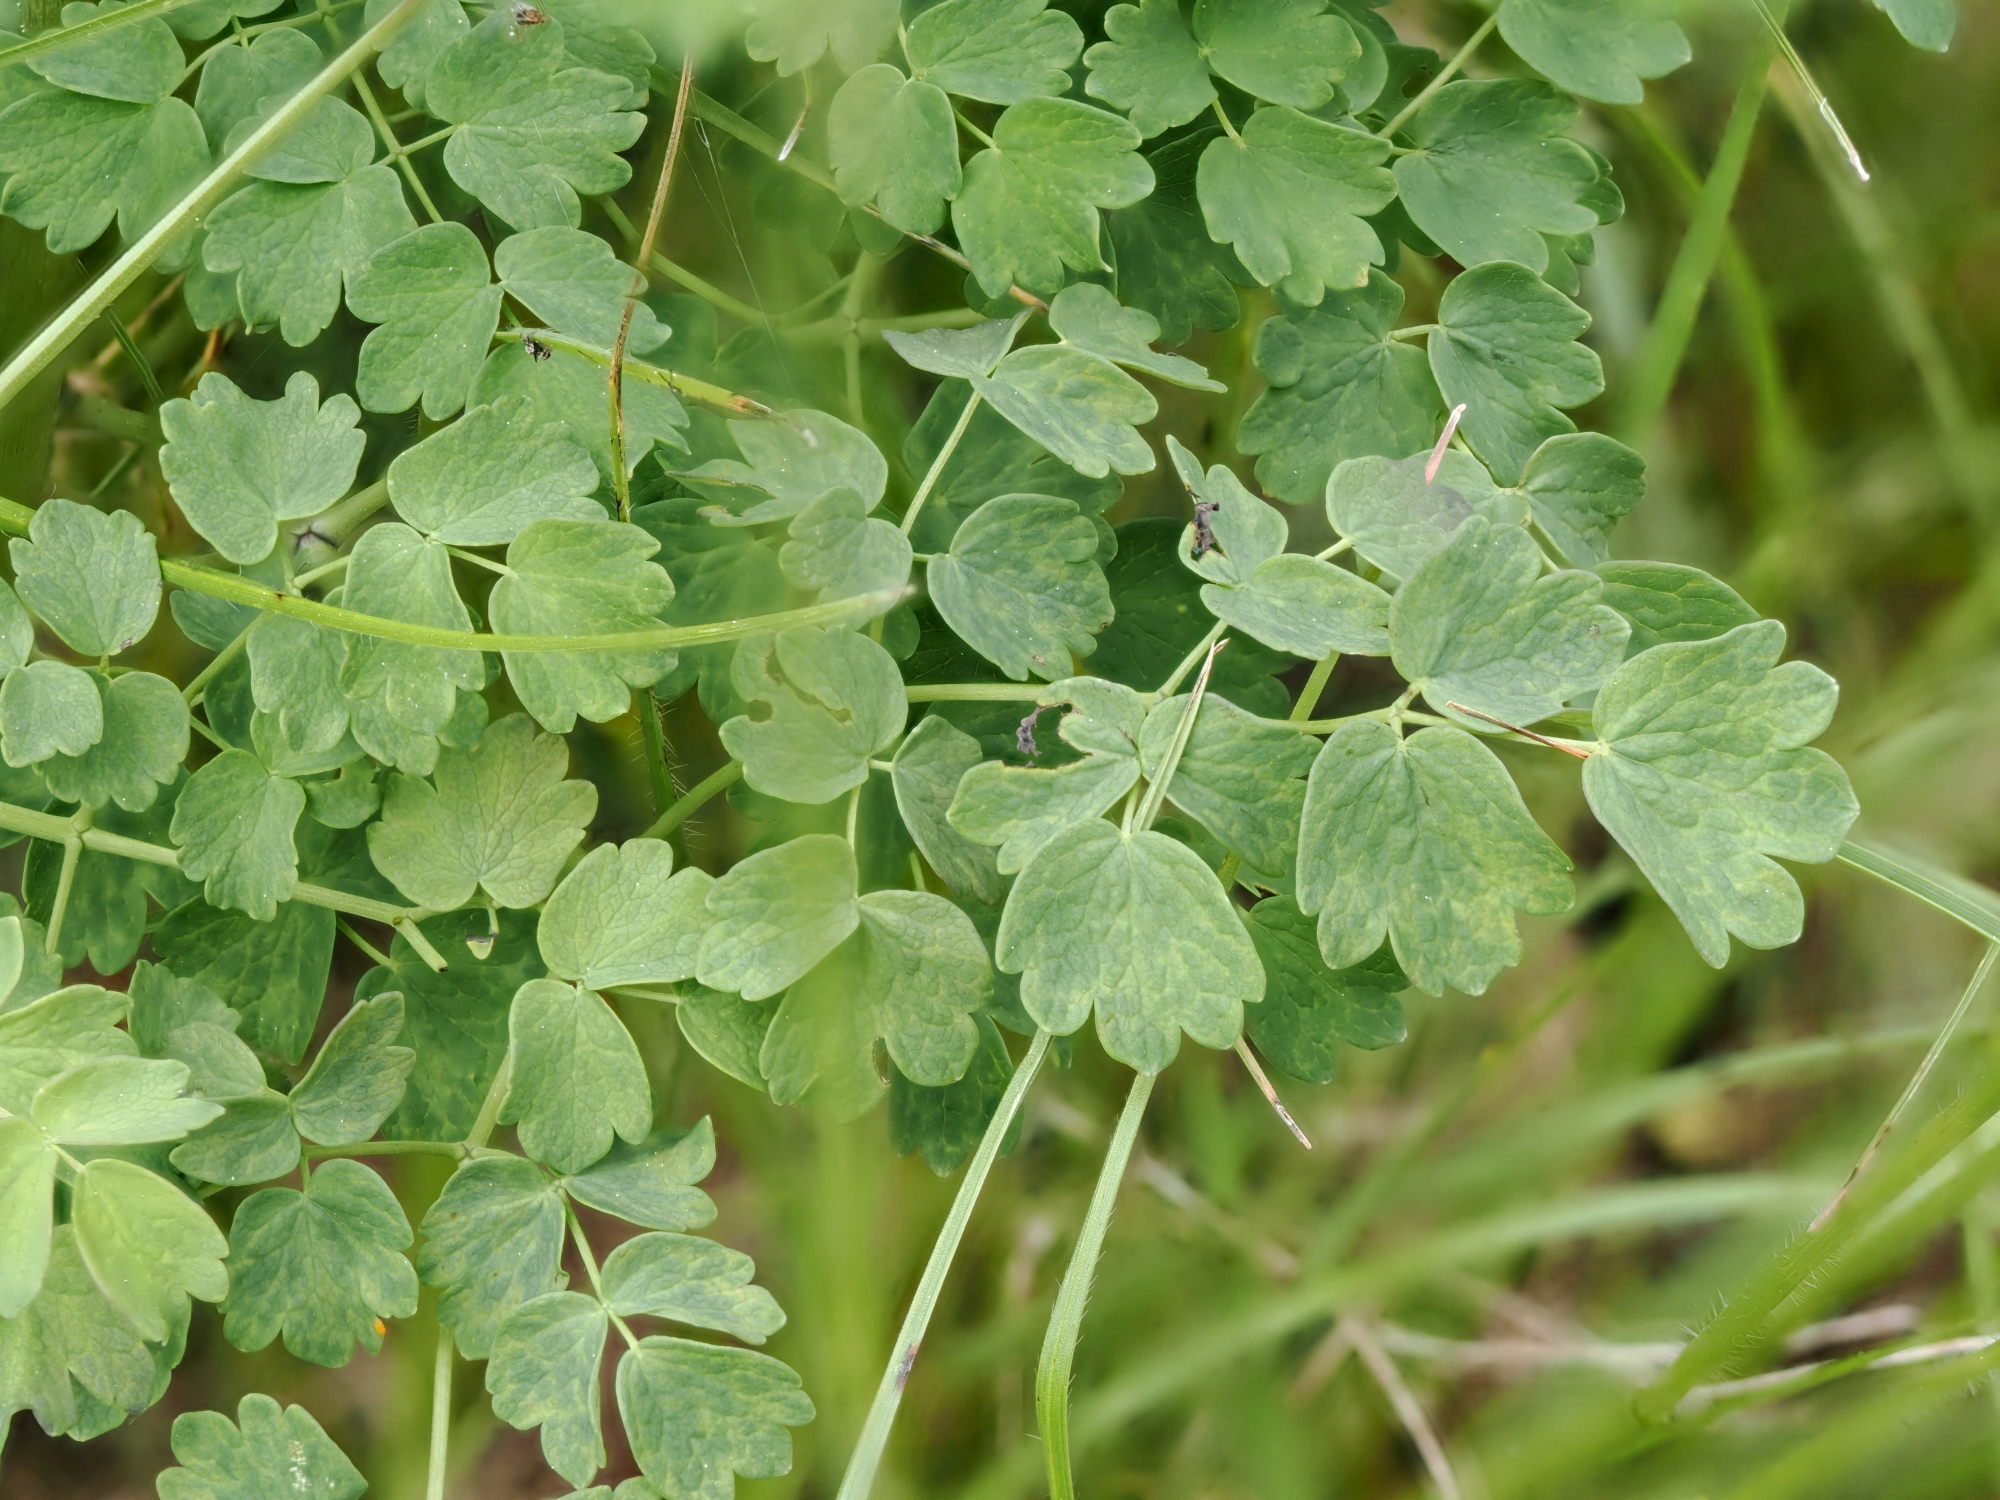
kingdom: Plantae
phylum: Tracheophyta
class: Magnoliopsida
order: Ranunculales
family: Ranunculaceae
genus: Thalictrum
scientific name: Thalictrum aquilegiifolium
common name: French meadow-rue
